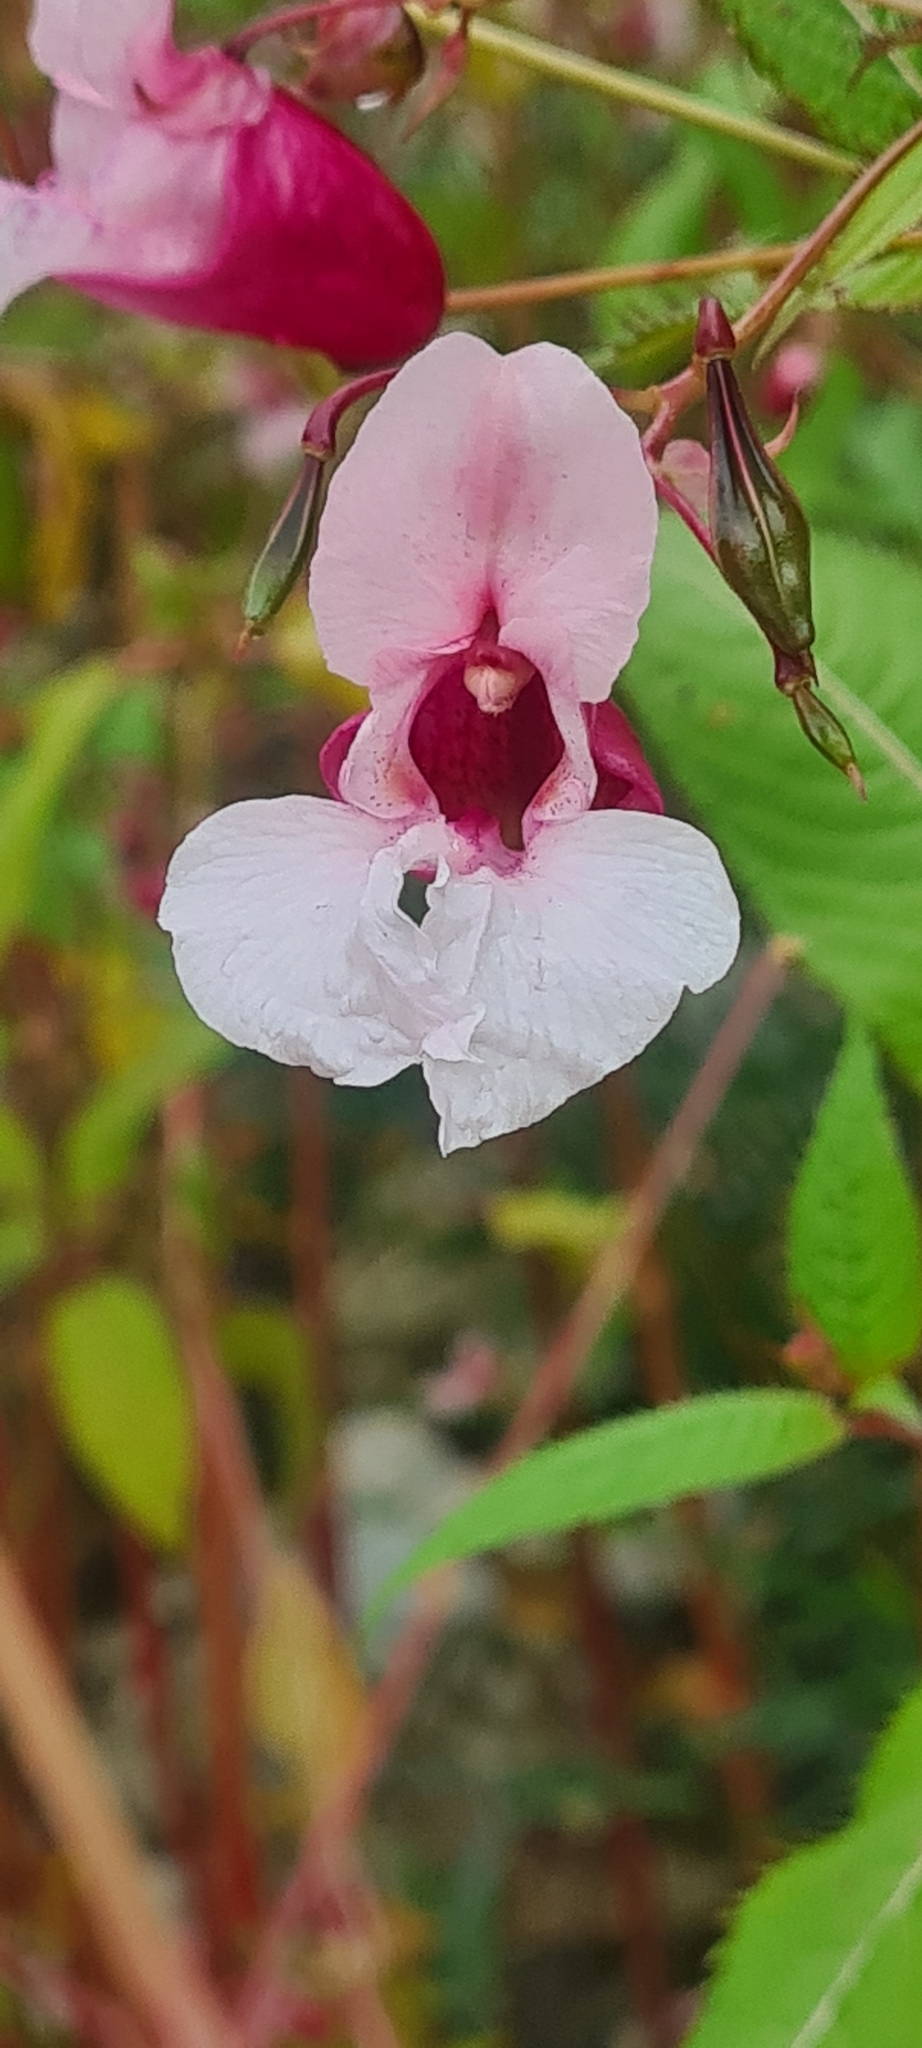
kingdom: Plantae
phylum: Tracheophyta
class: Magnoliopsida
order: Ericales
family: Balsaminaceae
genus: Impatiens
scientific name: Impatiens glandulifera
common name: Himalayan balsam
